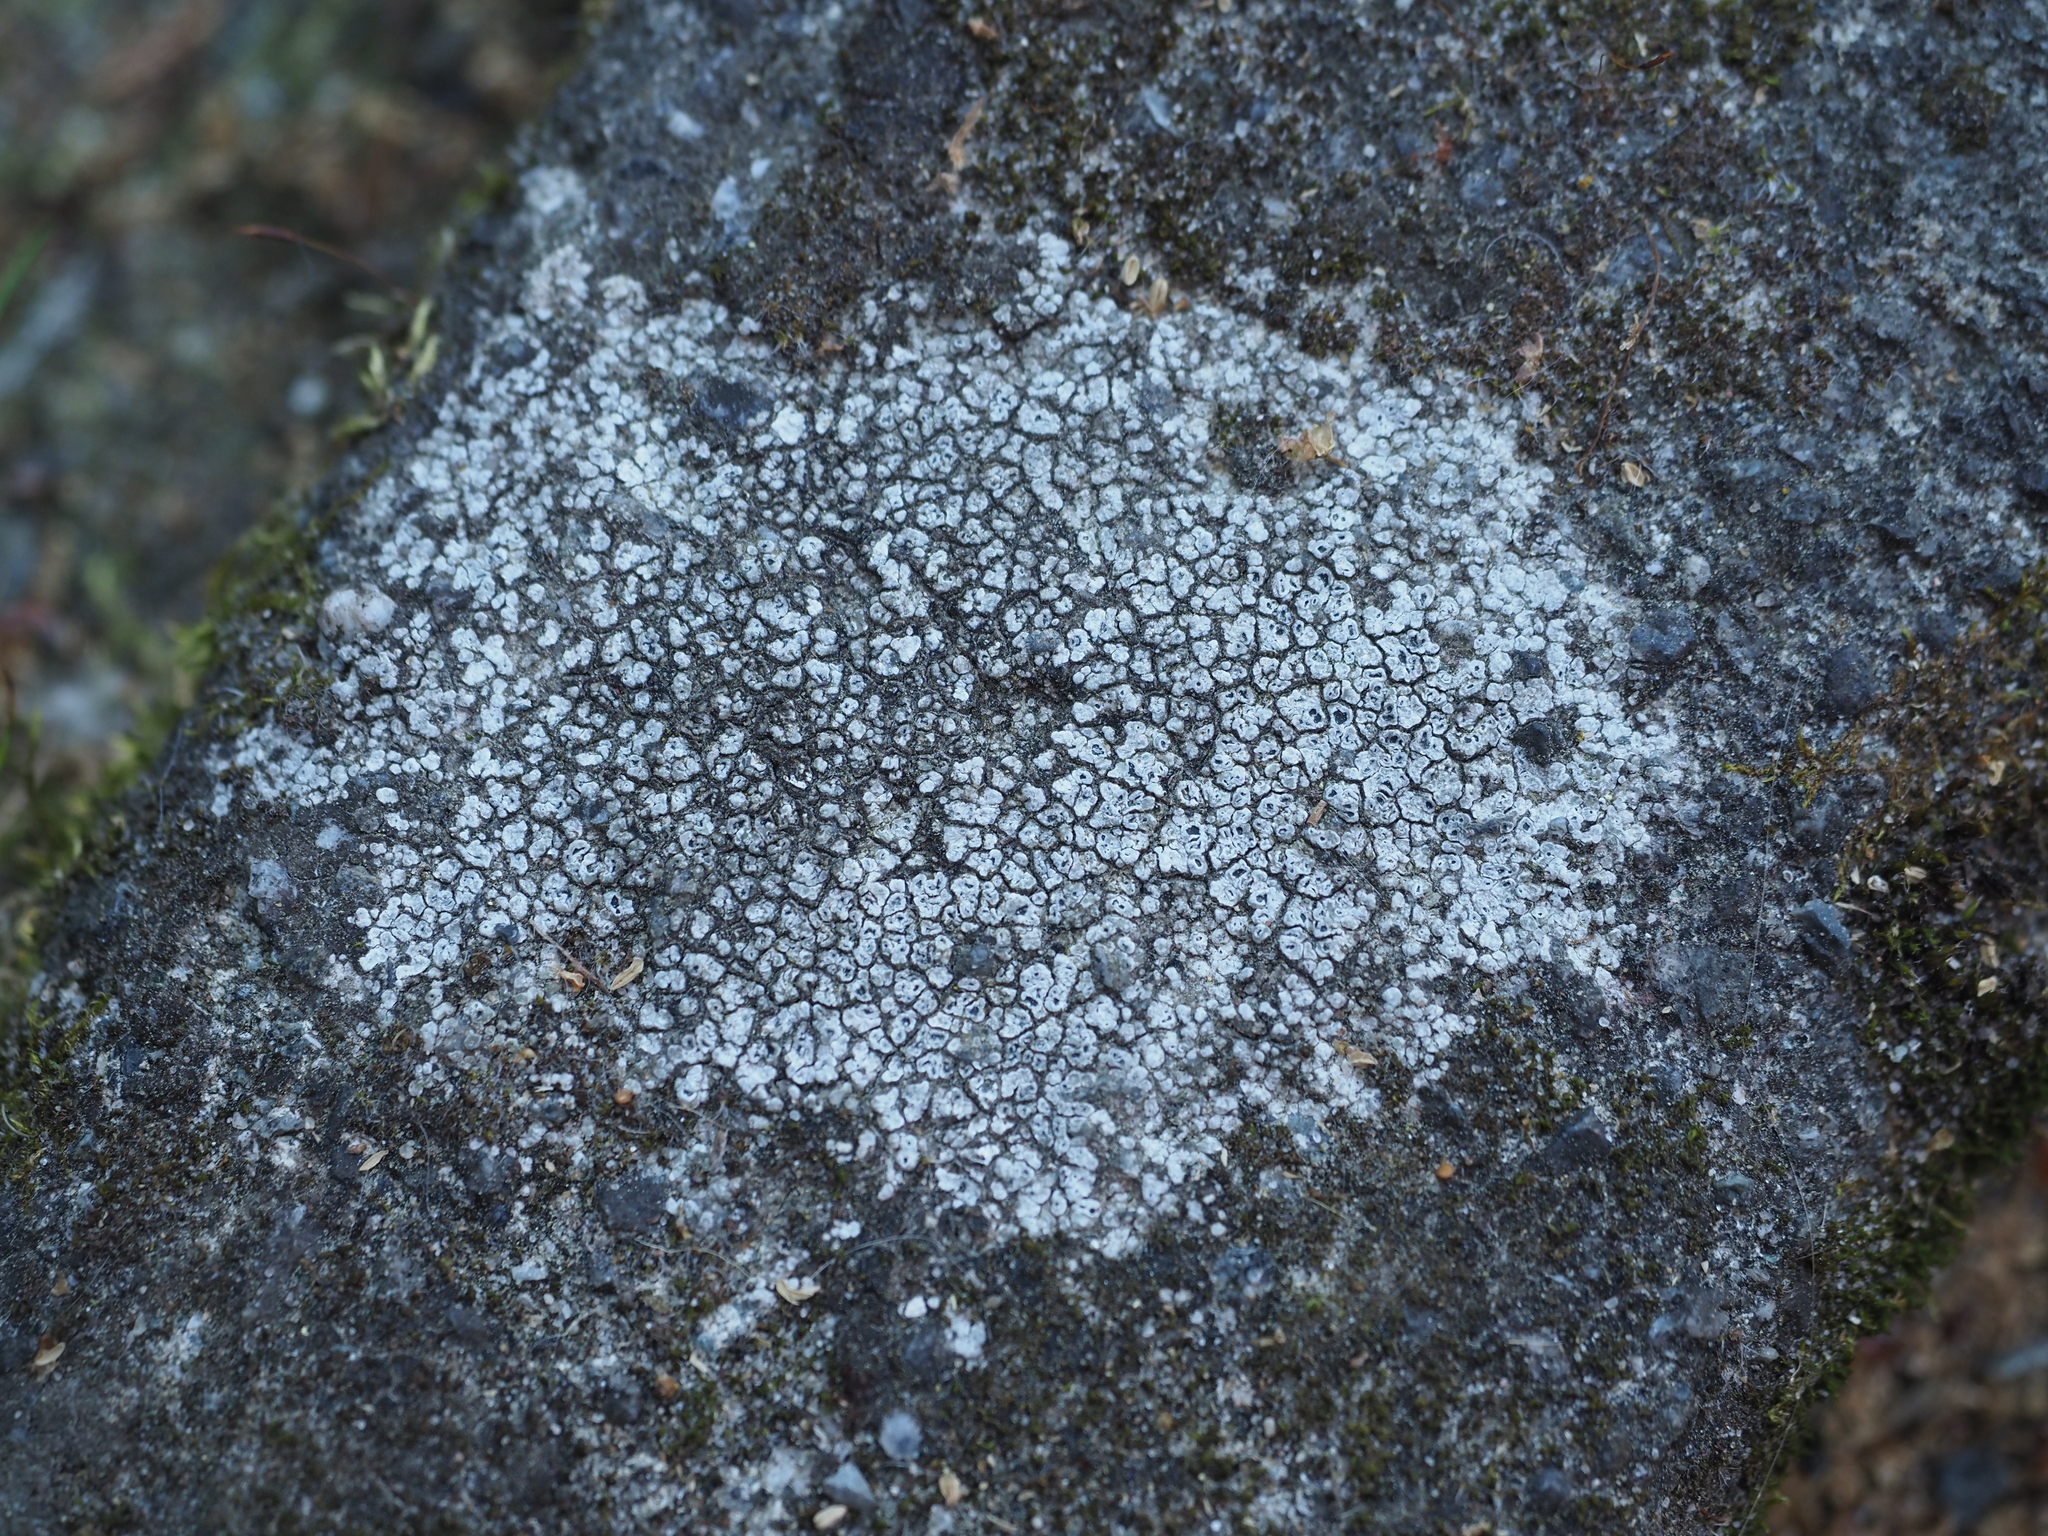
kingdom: Fungi
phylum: Ascomycota
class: Lecanoromycetes
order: Pertusariales
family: Megasporaceae
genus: Circinaria
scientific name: Circinaria contorta
